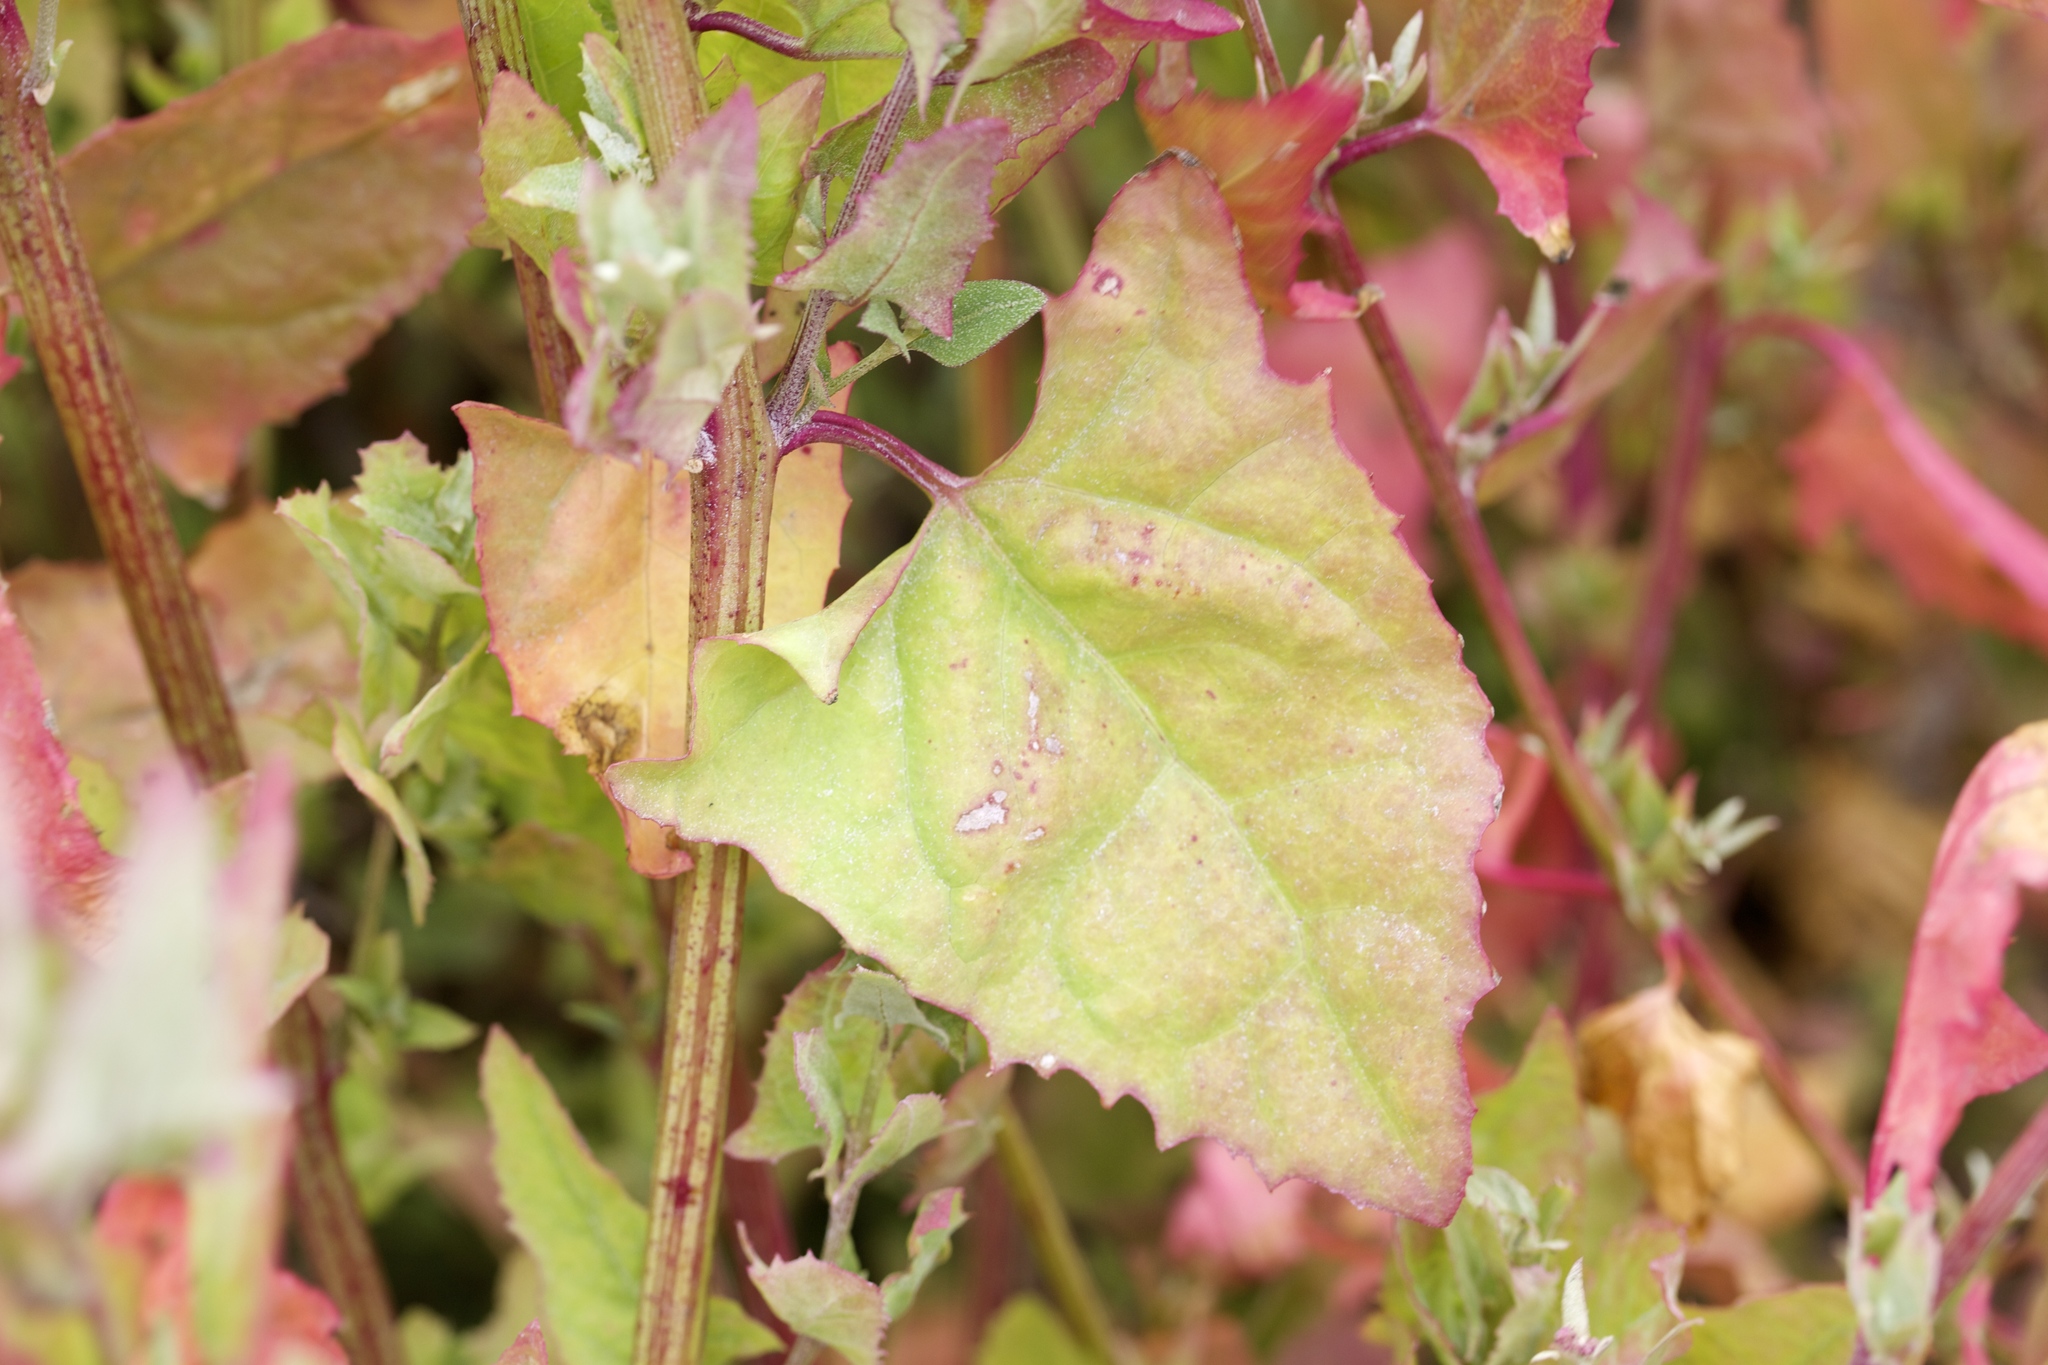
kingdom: Plantae
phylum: Tracheophyta
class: Magnoliopsida
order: Caryophyllales
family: Amaranthaceae
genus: Atriplex
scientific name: Atriplex prostrata
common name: Spear-leaved orache
